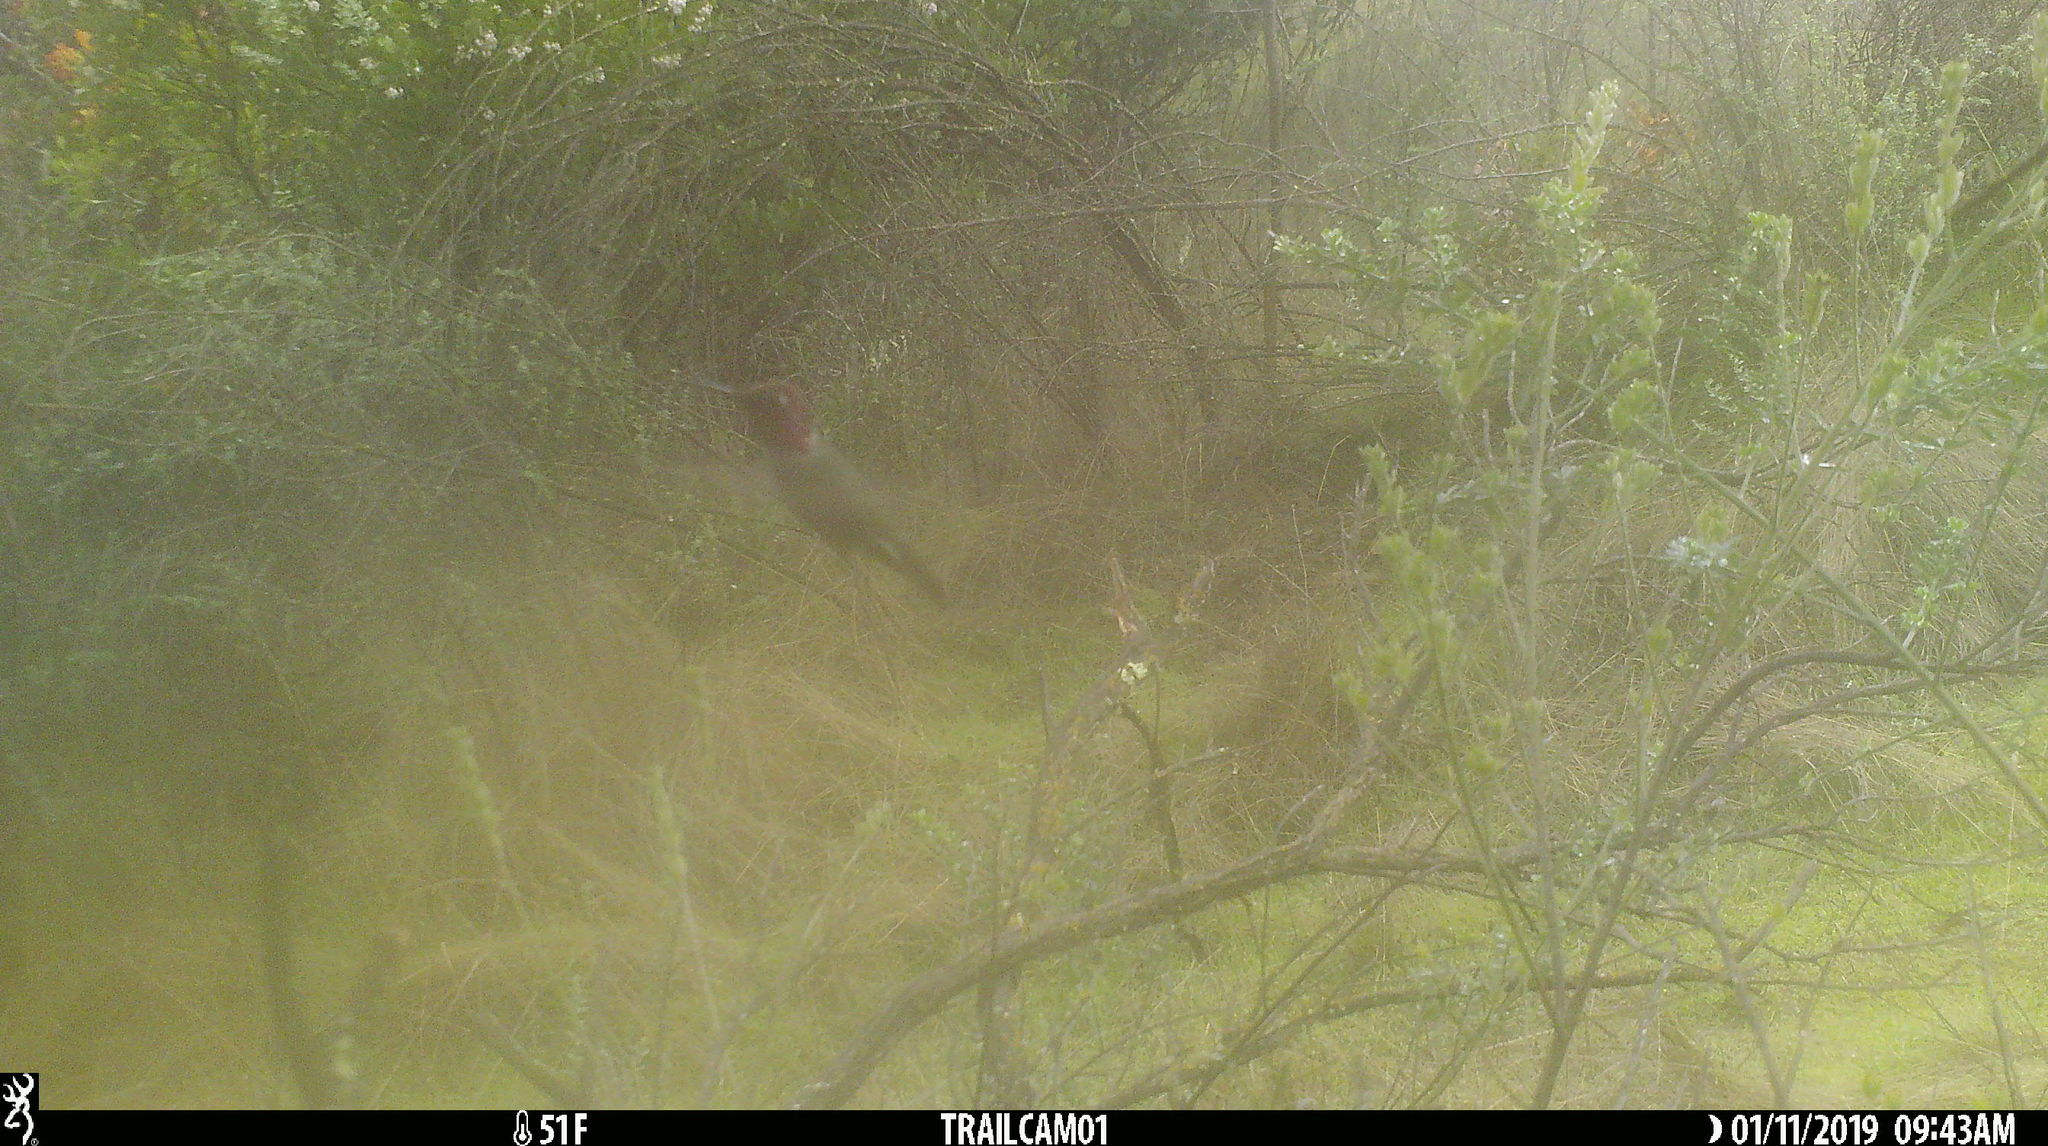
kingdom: Animalia
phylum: Chordata
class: Aves
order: Apodiformes
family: Trochilidae
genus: Calypte
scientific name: Calypte anna
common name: Anna's hummingbird
